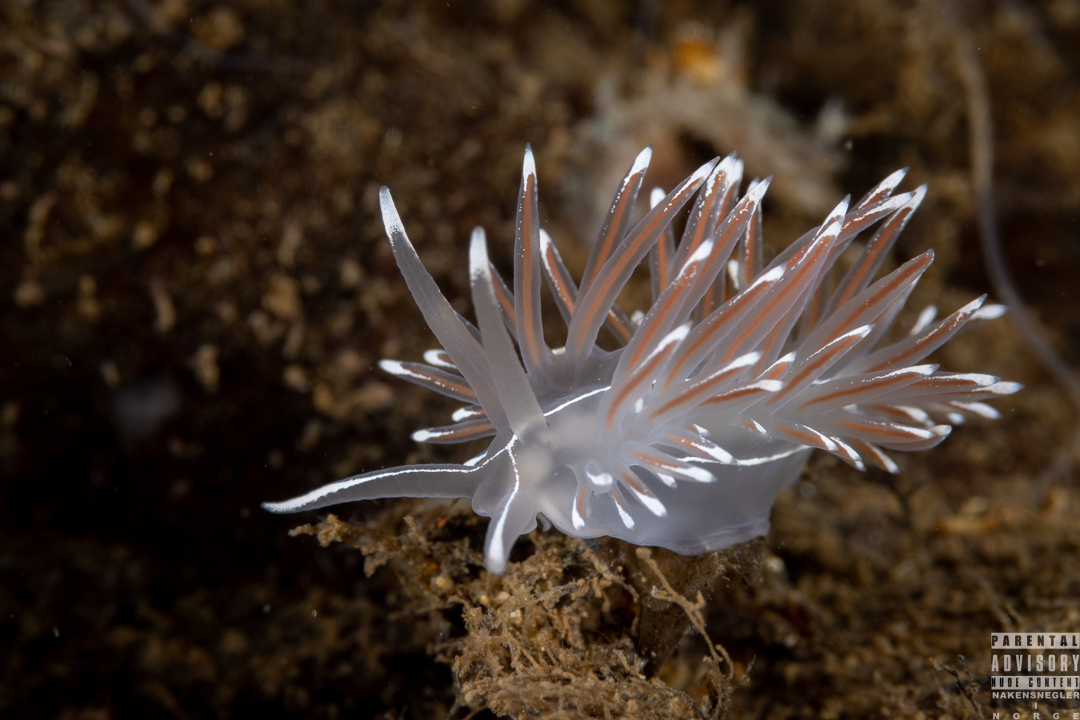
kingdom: Animalia
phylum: Mollusca
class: Gastropoda
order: Nudibranchia
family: Coryphellidae
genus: Coryphella
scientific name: Coryphella lineata
